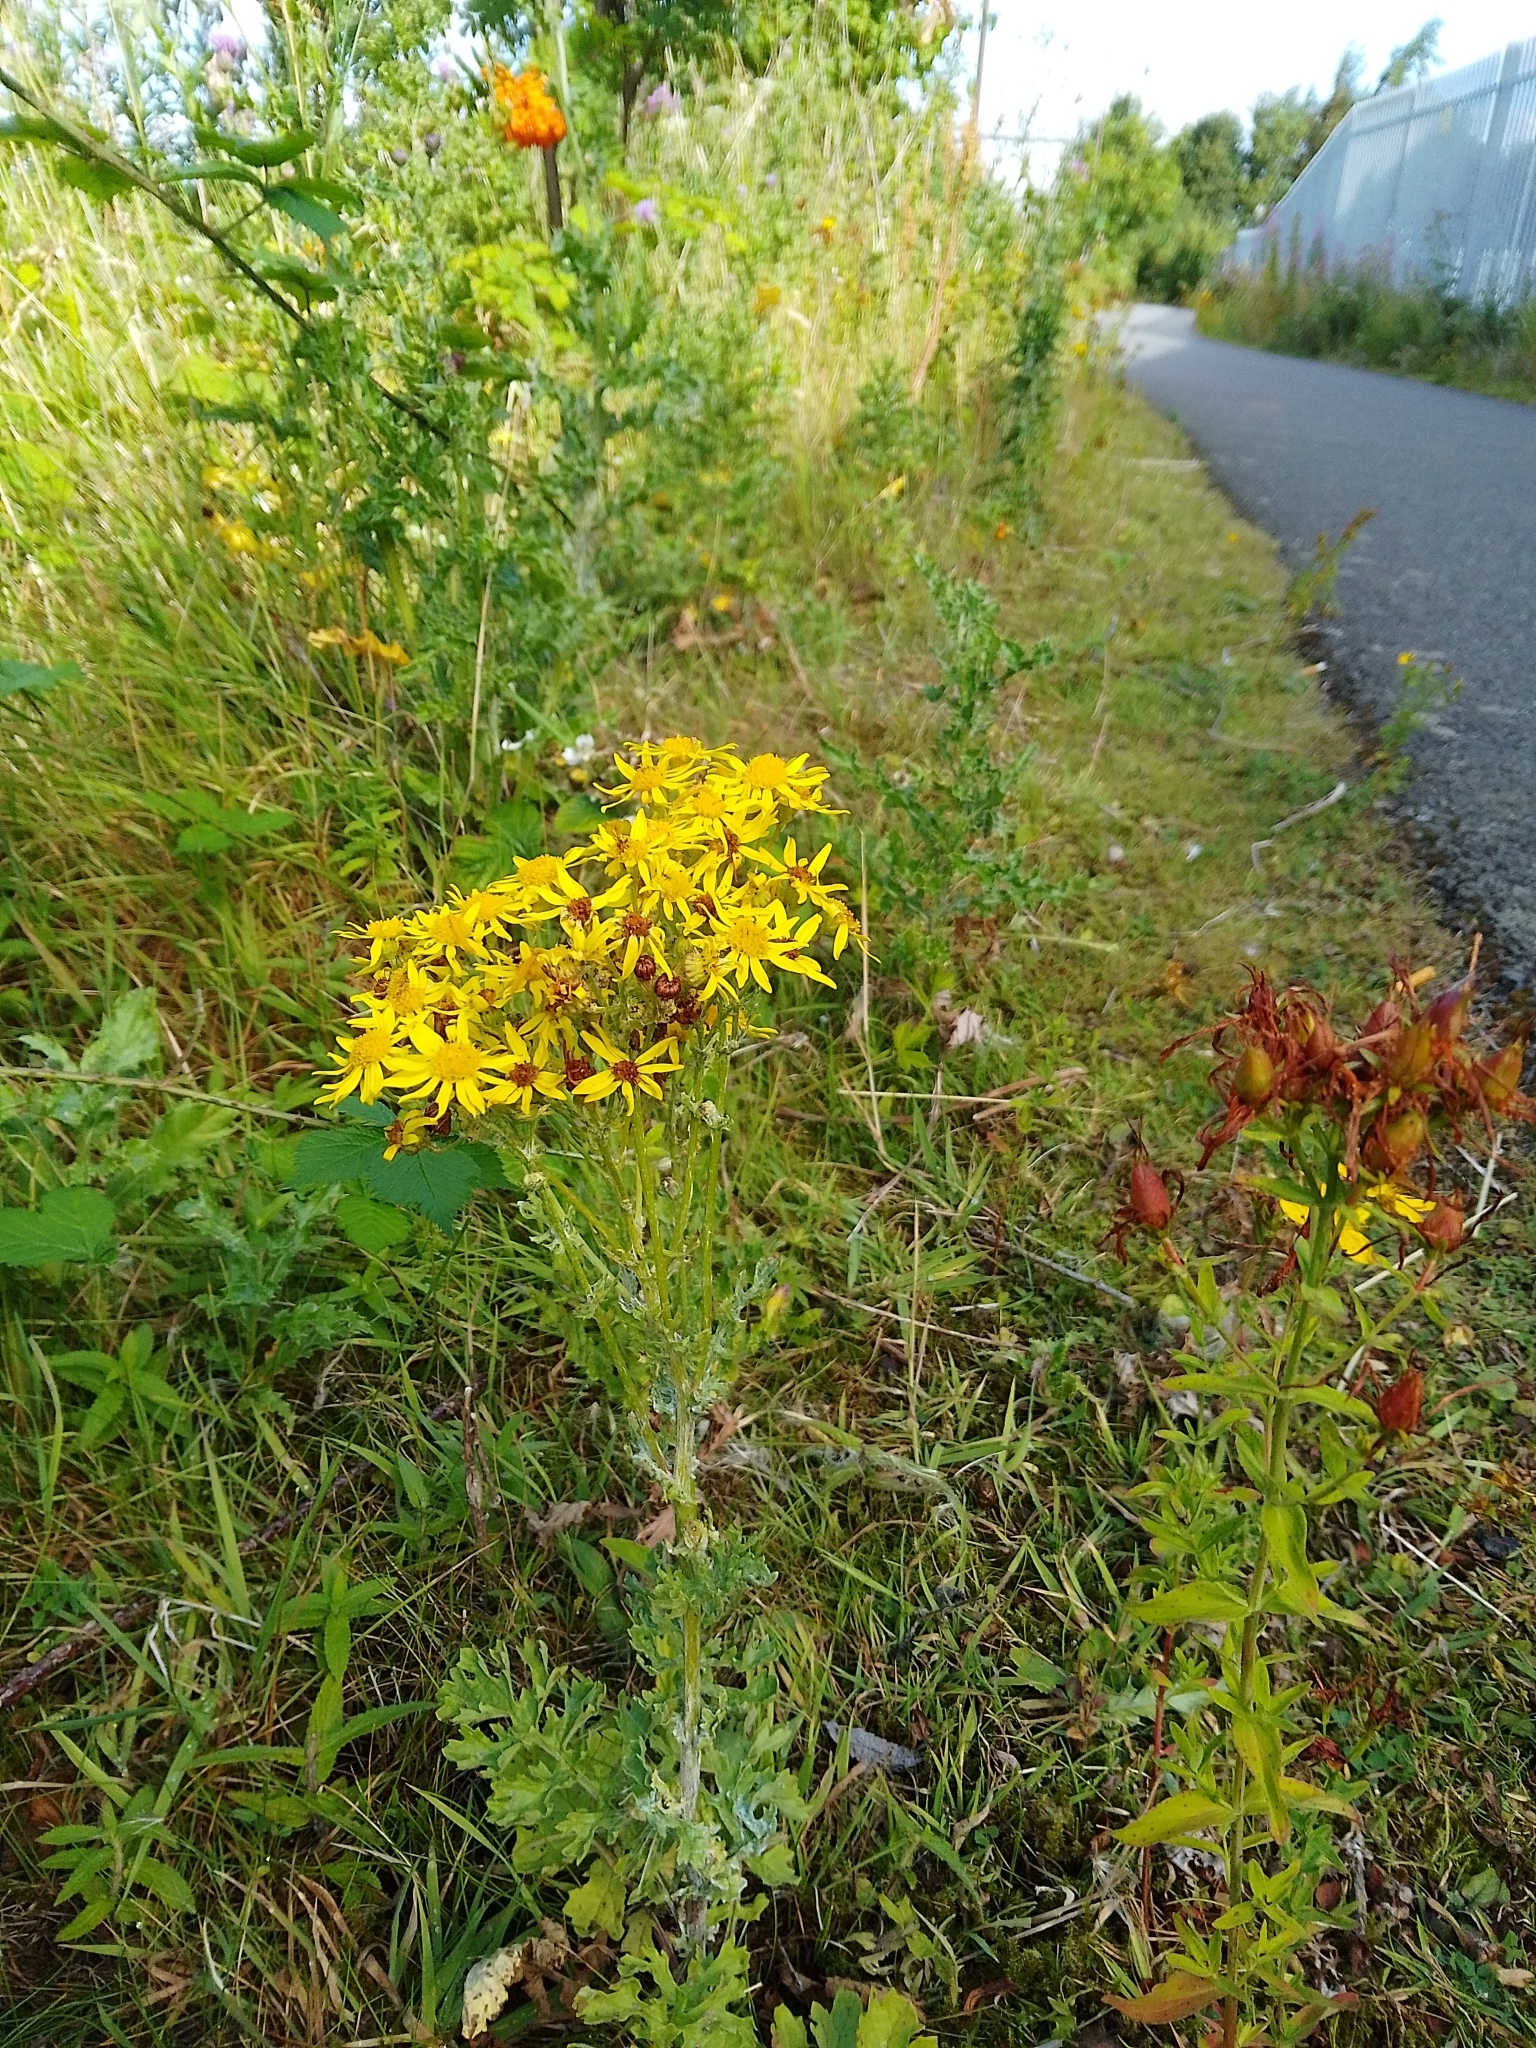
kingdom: Plantae
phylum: Tracheophyta
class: Magnoliopsida
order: Asterales
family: Asteraceae
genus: Jacobaea
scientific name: Jacobaea vulgaris
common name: Stinking willie
